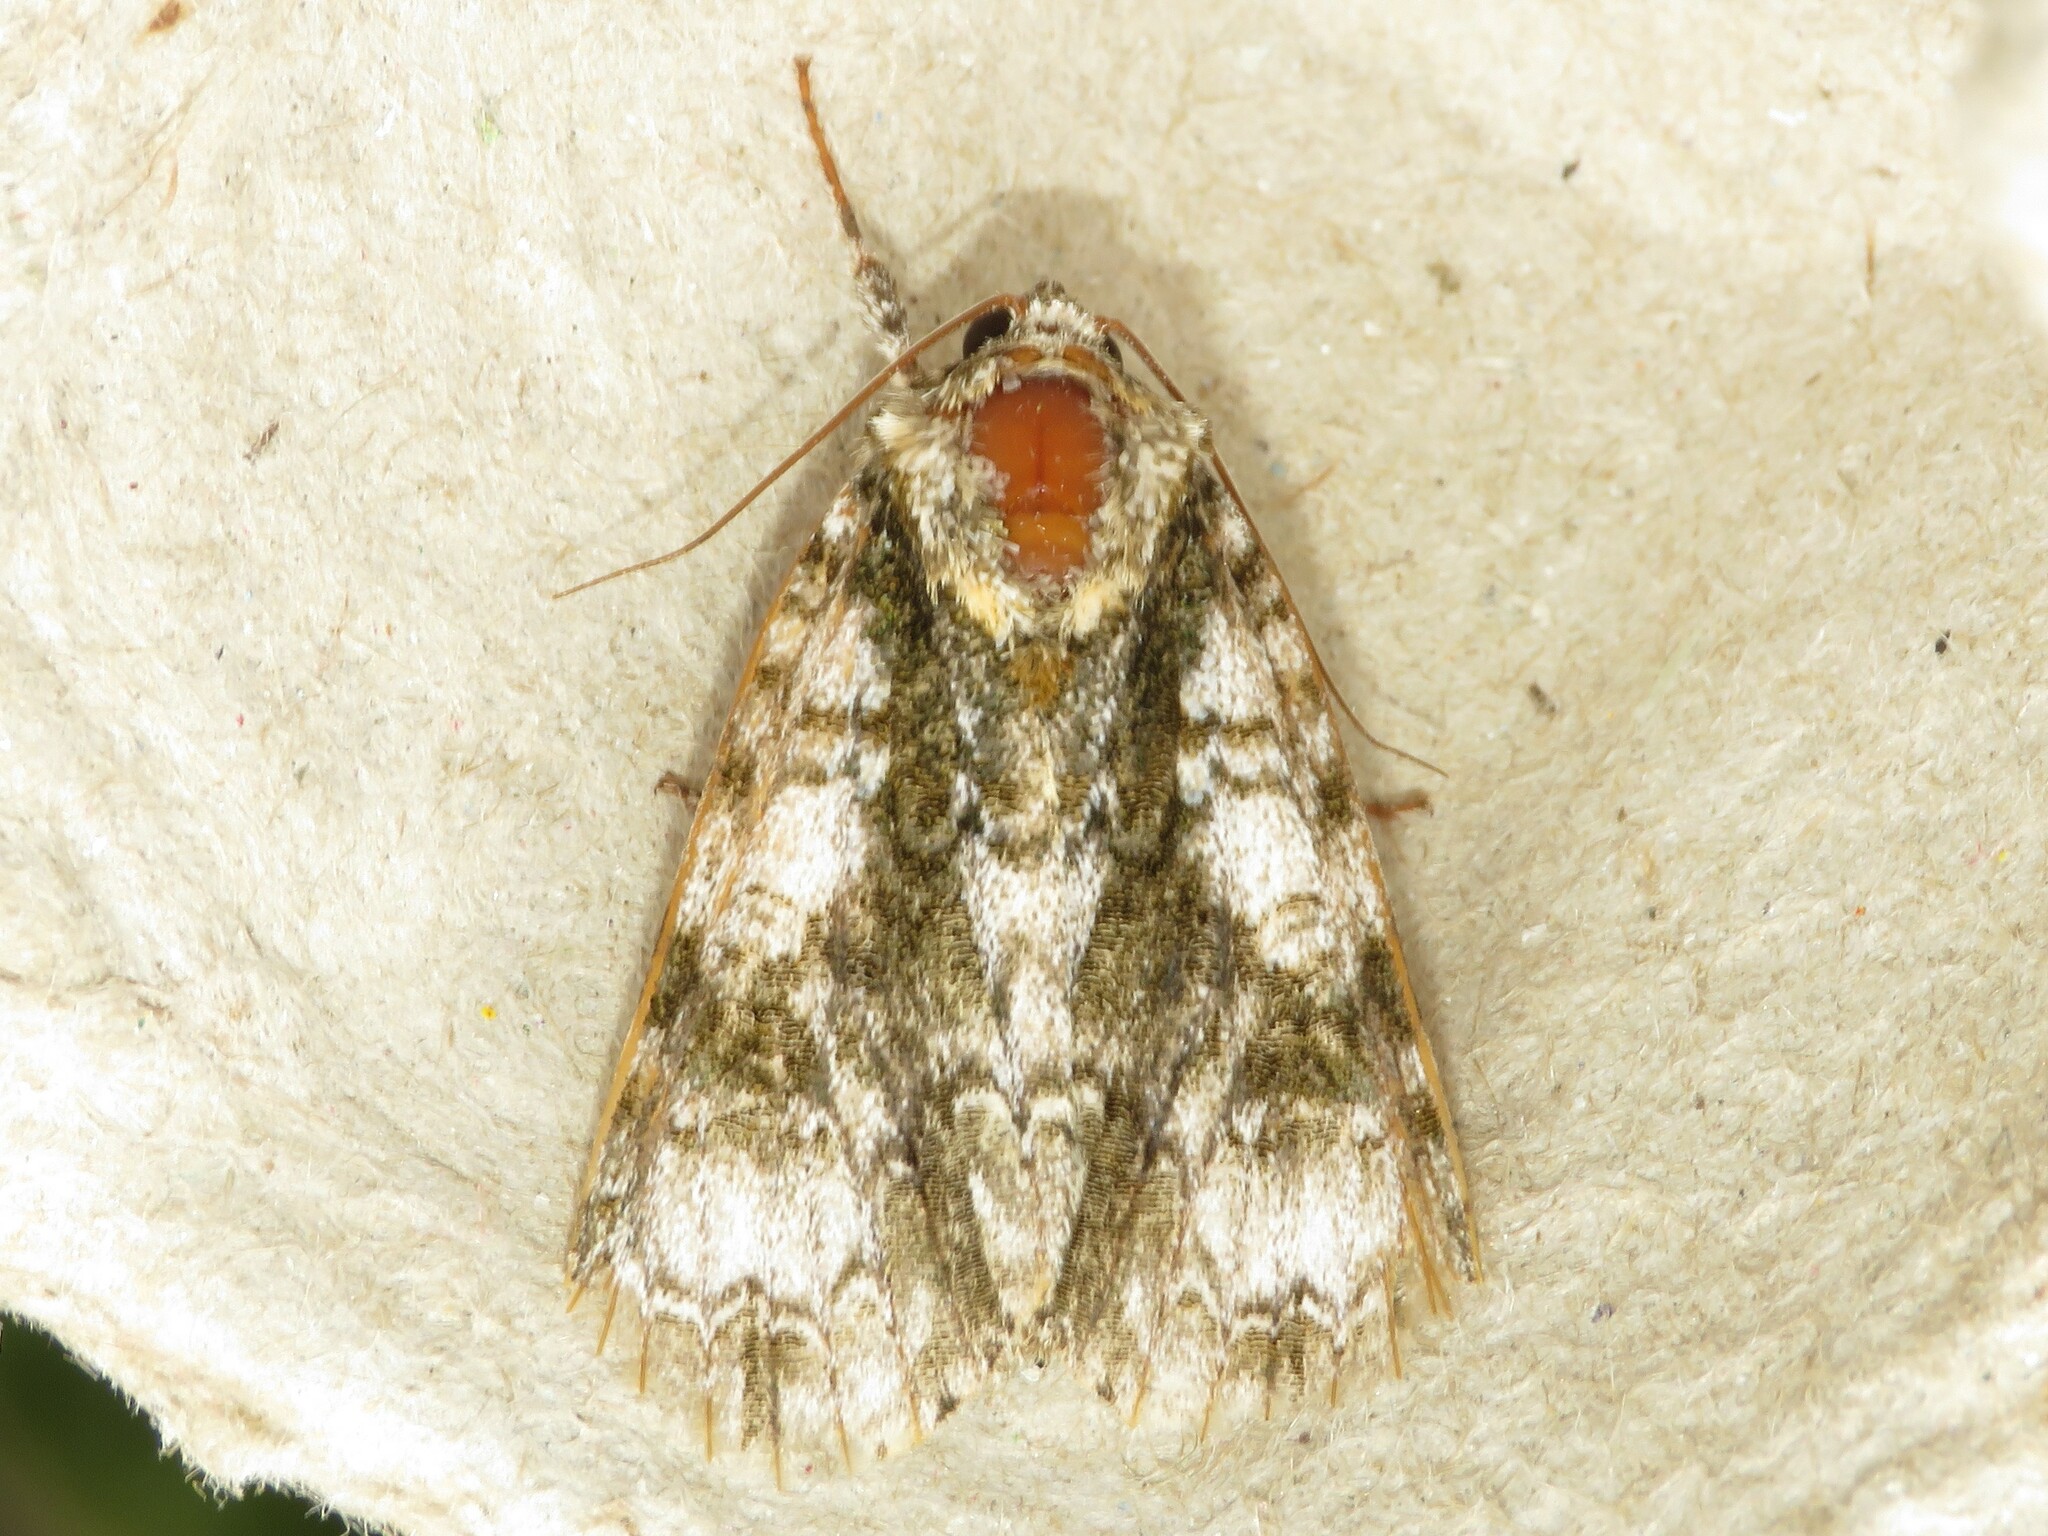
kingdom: Animalia
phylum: Arthropoda
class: Insecta
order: Lepidoptera
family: Noctuidae
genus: Acronicta
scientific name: Acronicta superans
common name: Splendid dagger
